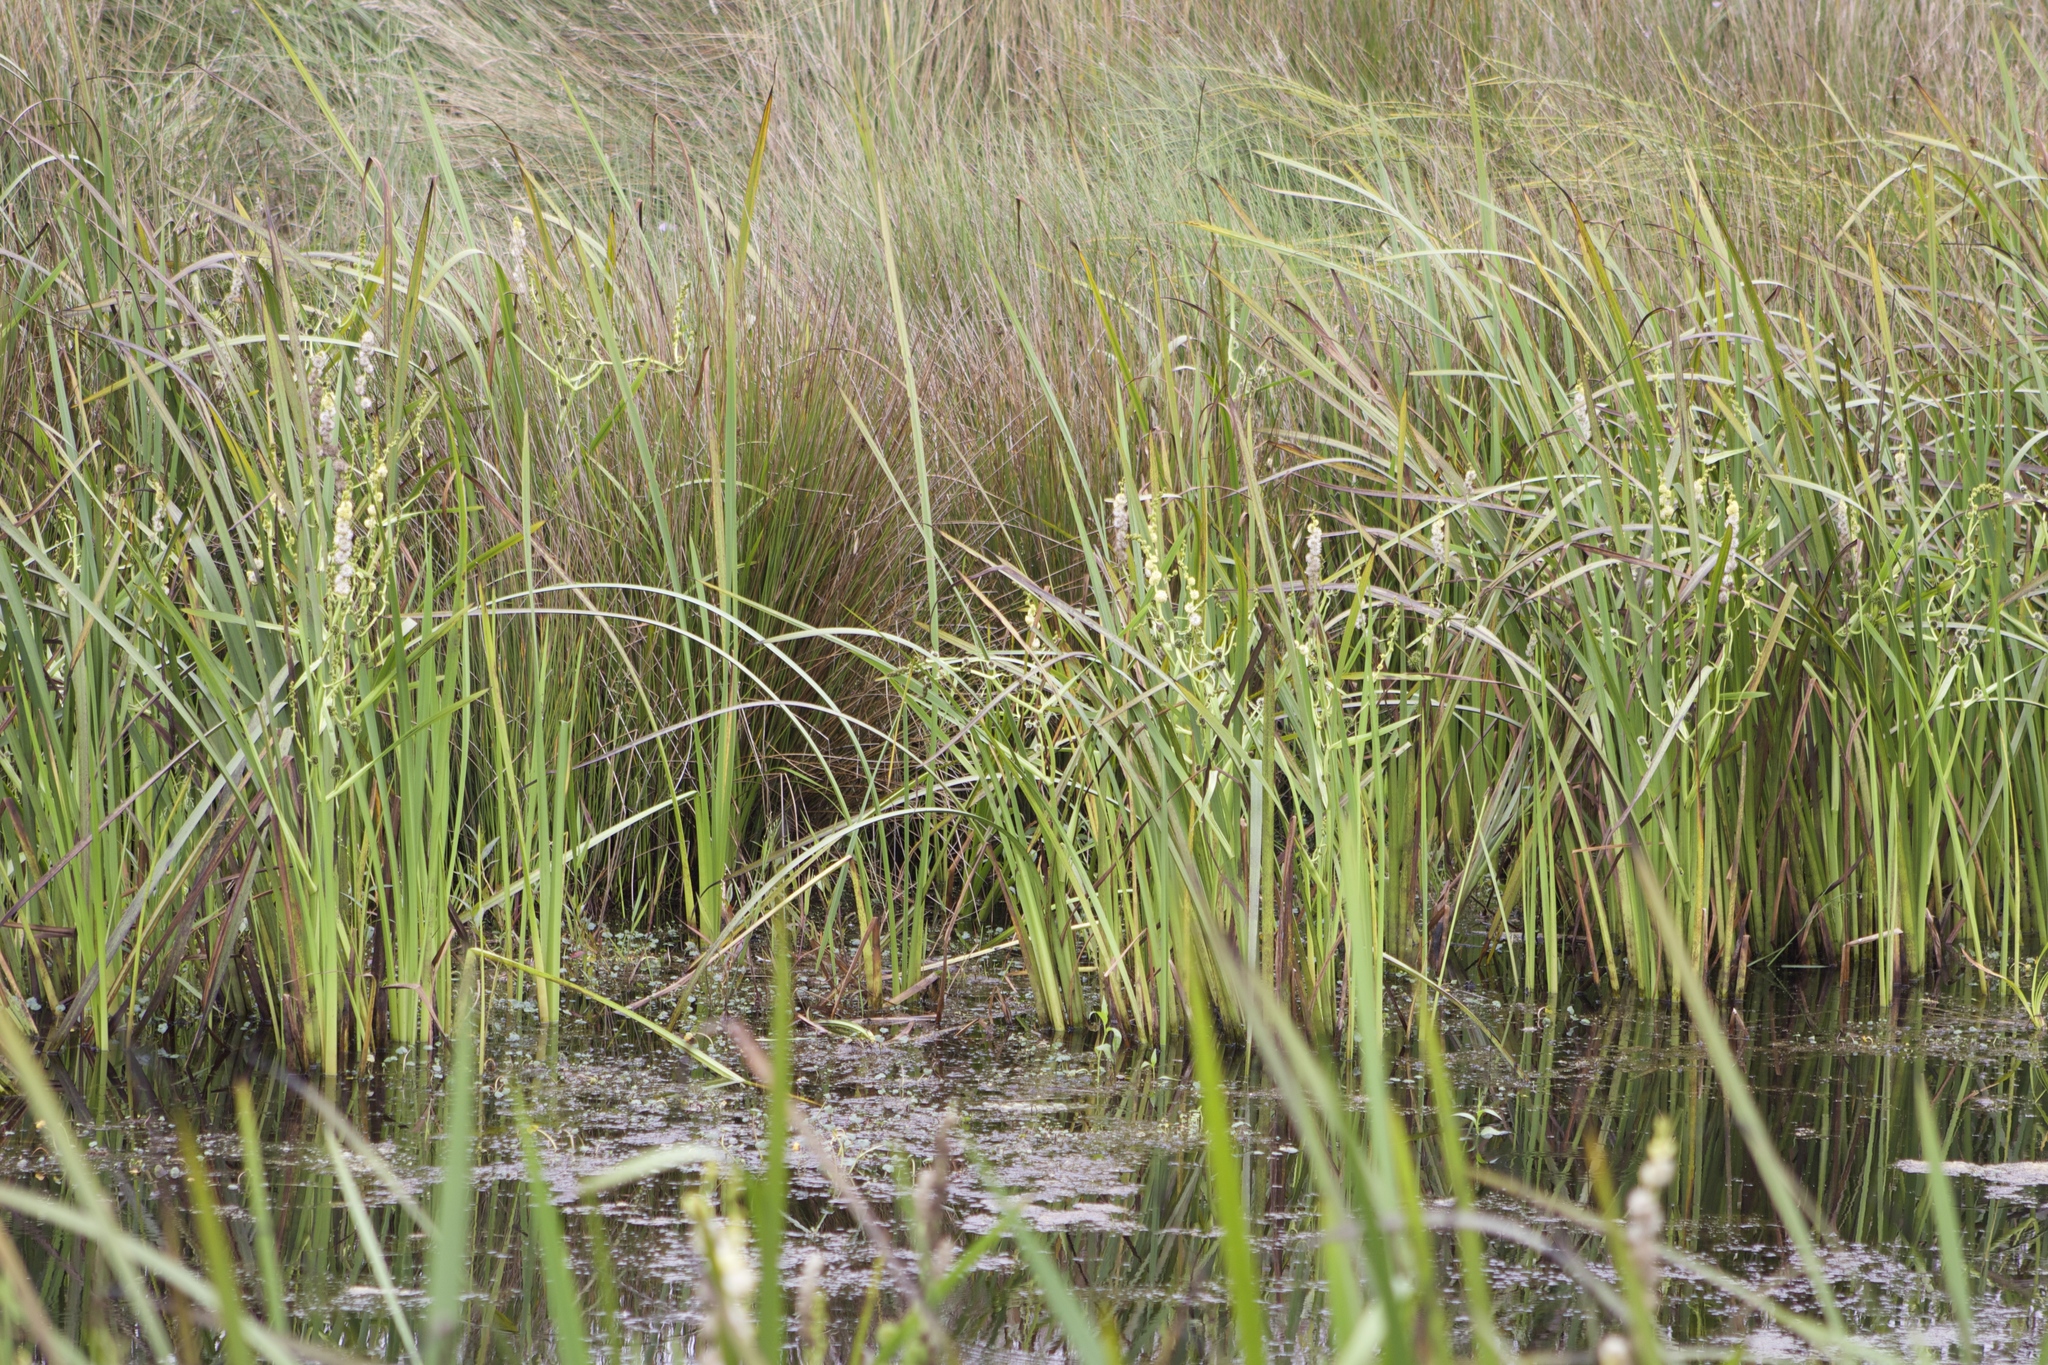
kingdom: Plantae
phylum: Tracheophyta
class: Liliopsida
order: Poales
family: Typhaceae
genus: Sparganium
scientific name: Sparganium eurycarpum
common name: Broad-fruited burreed
